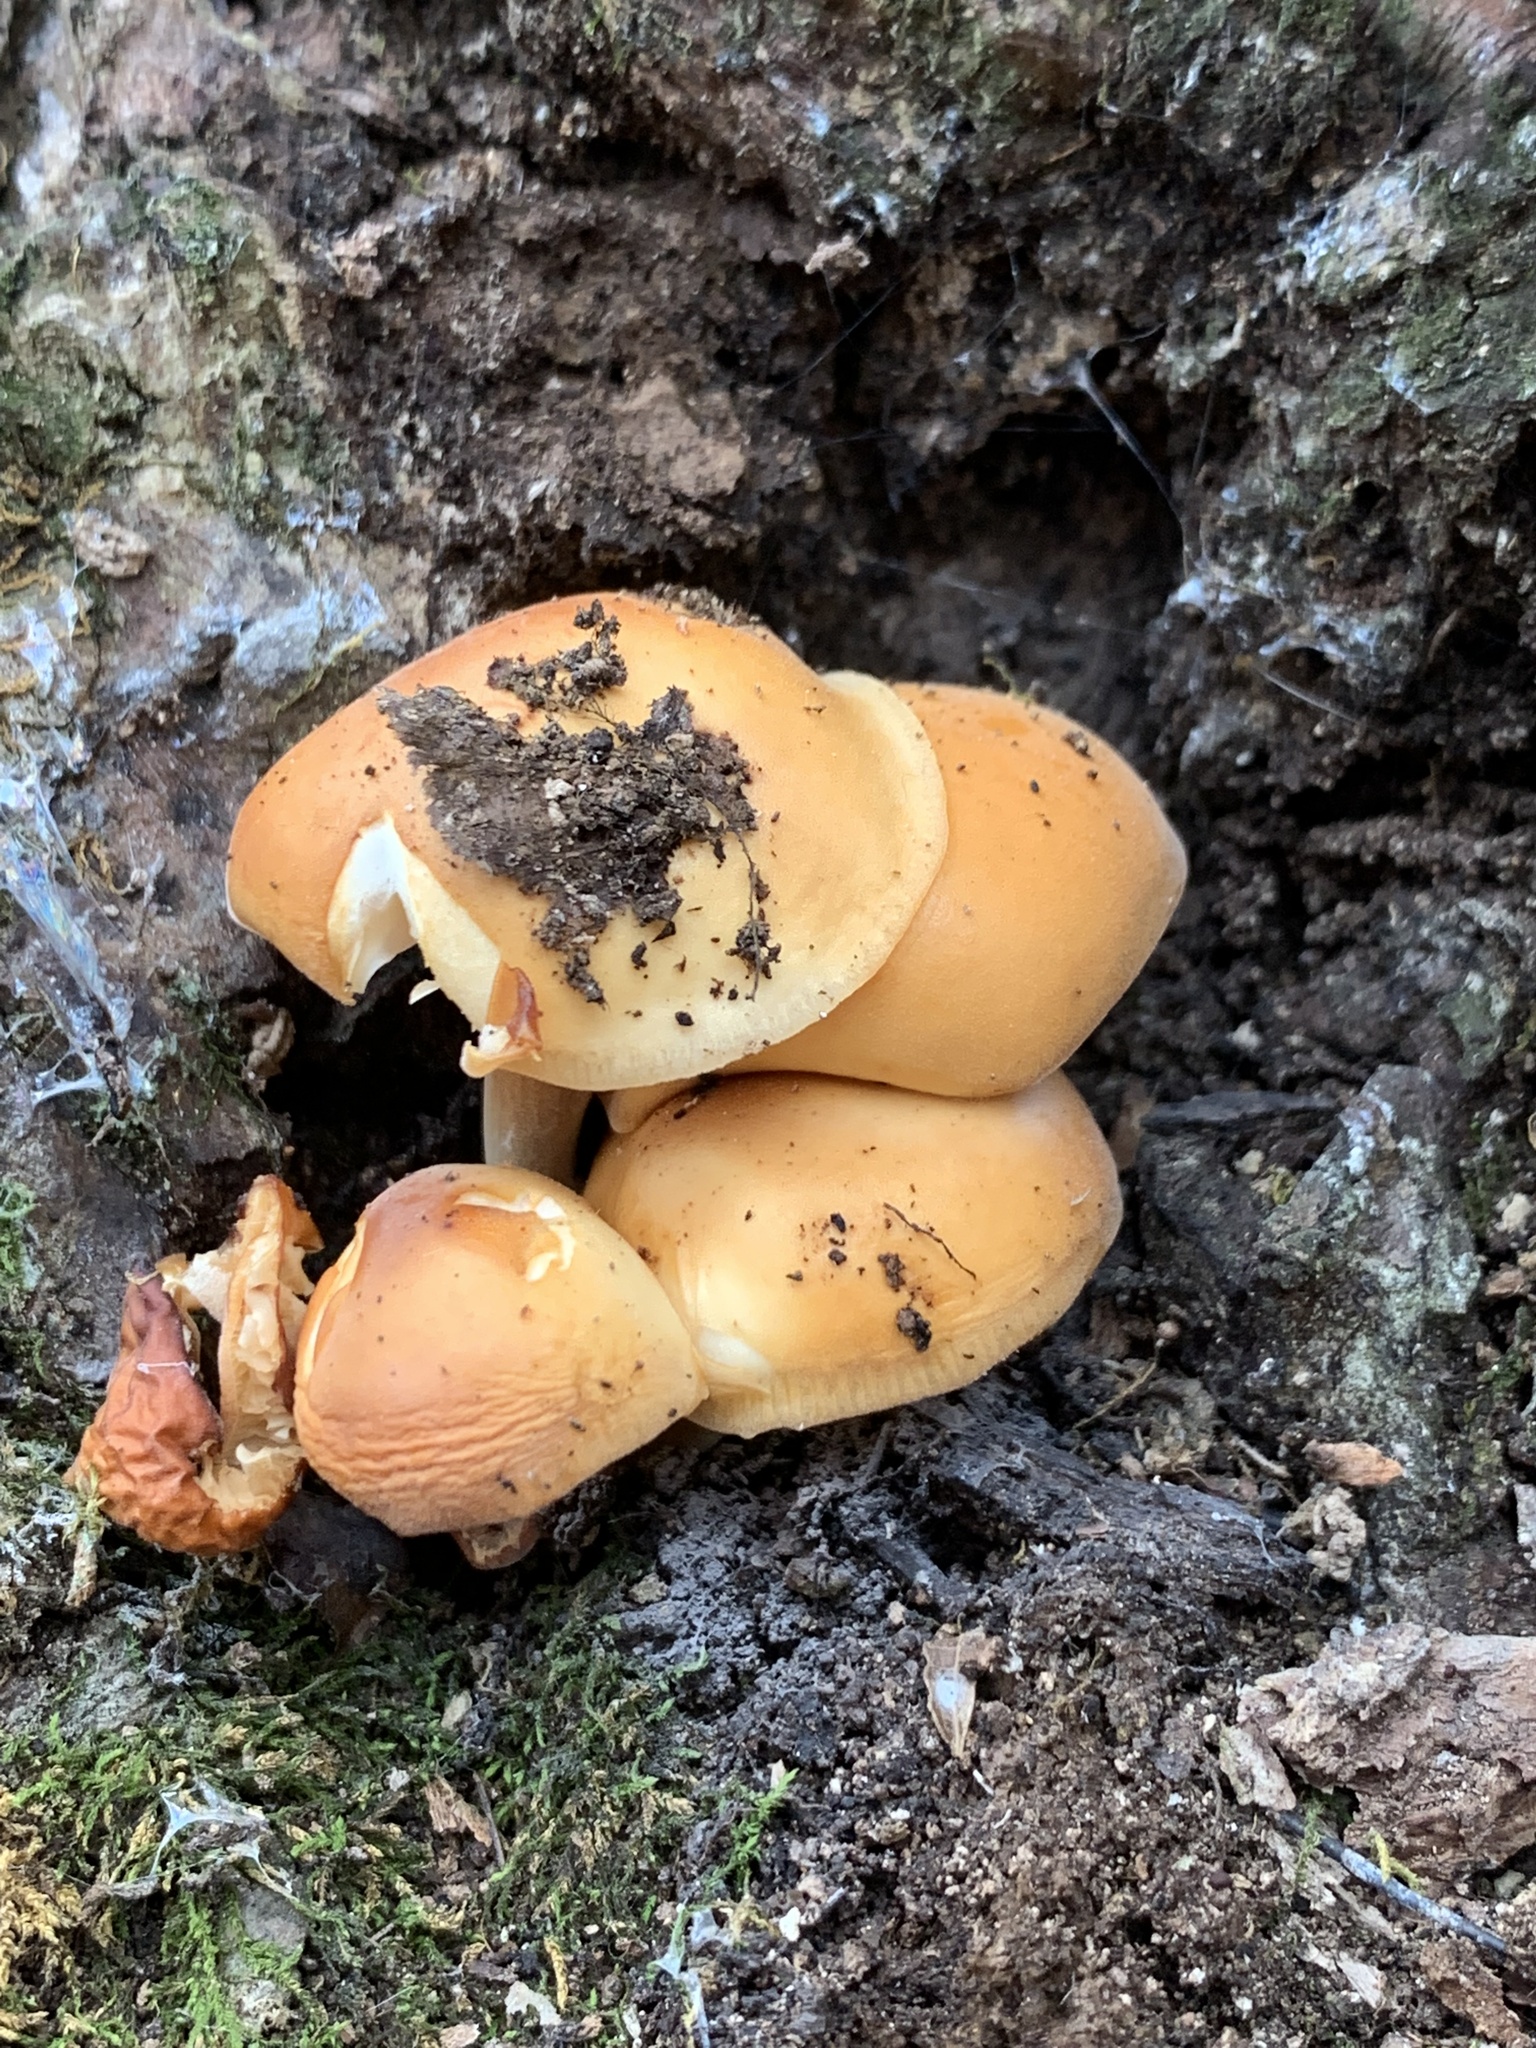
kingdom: Fungi
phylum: Basidiomycota
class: Agaricomycetes
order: Agaricales
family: Physalacriaceae
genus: Flammulina
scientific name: Flammulina velutipes
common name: Velvet shank
